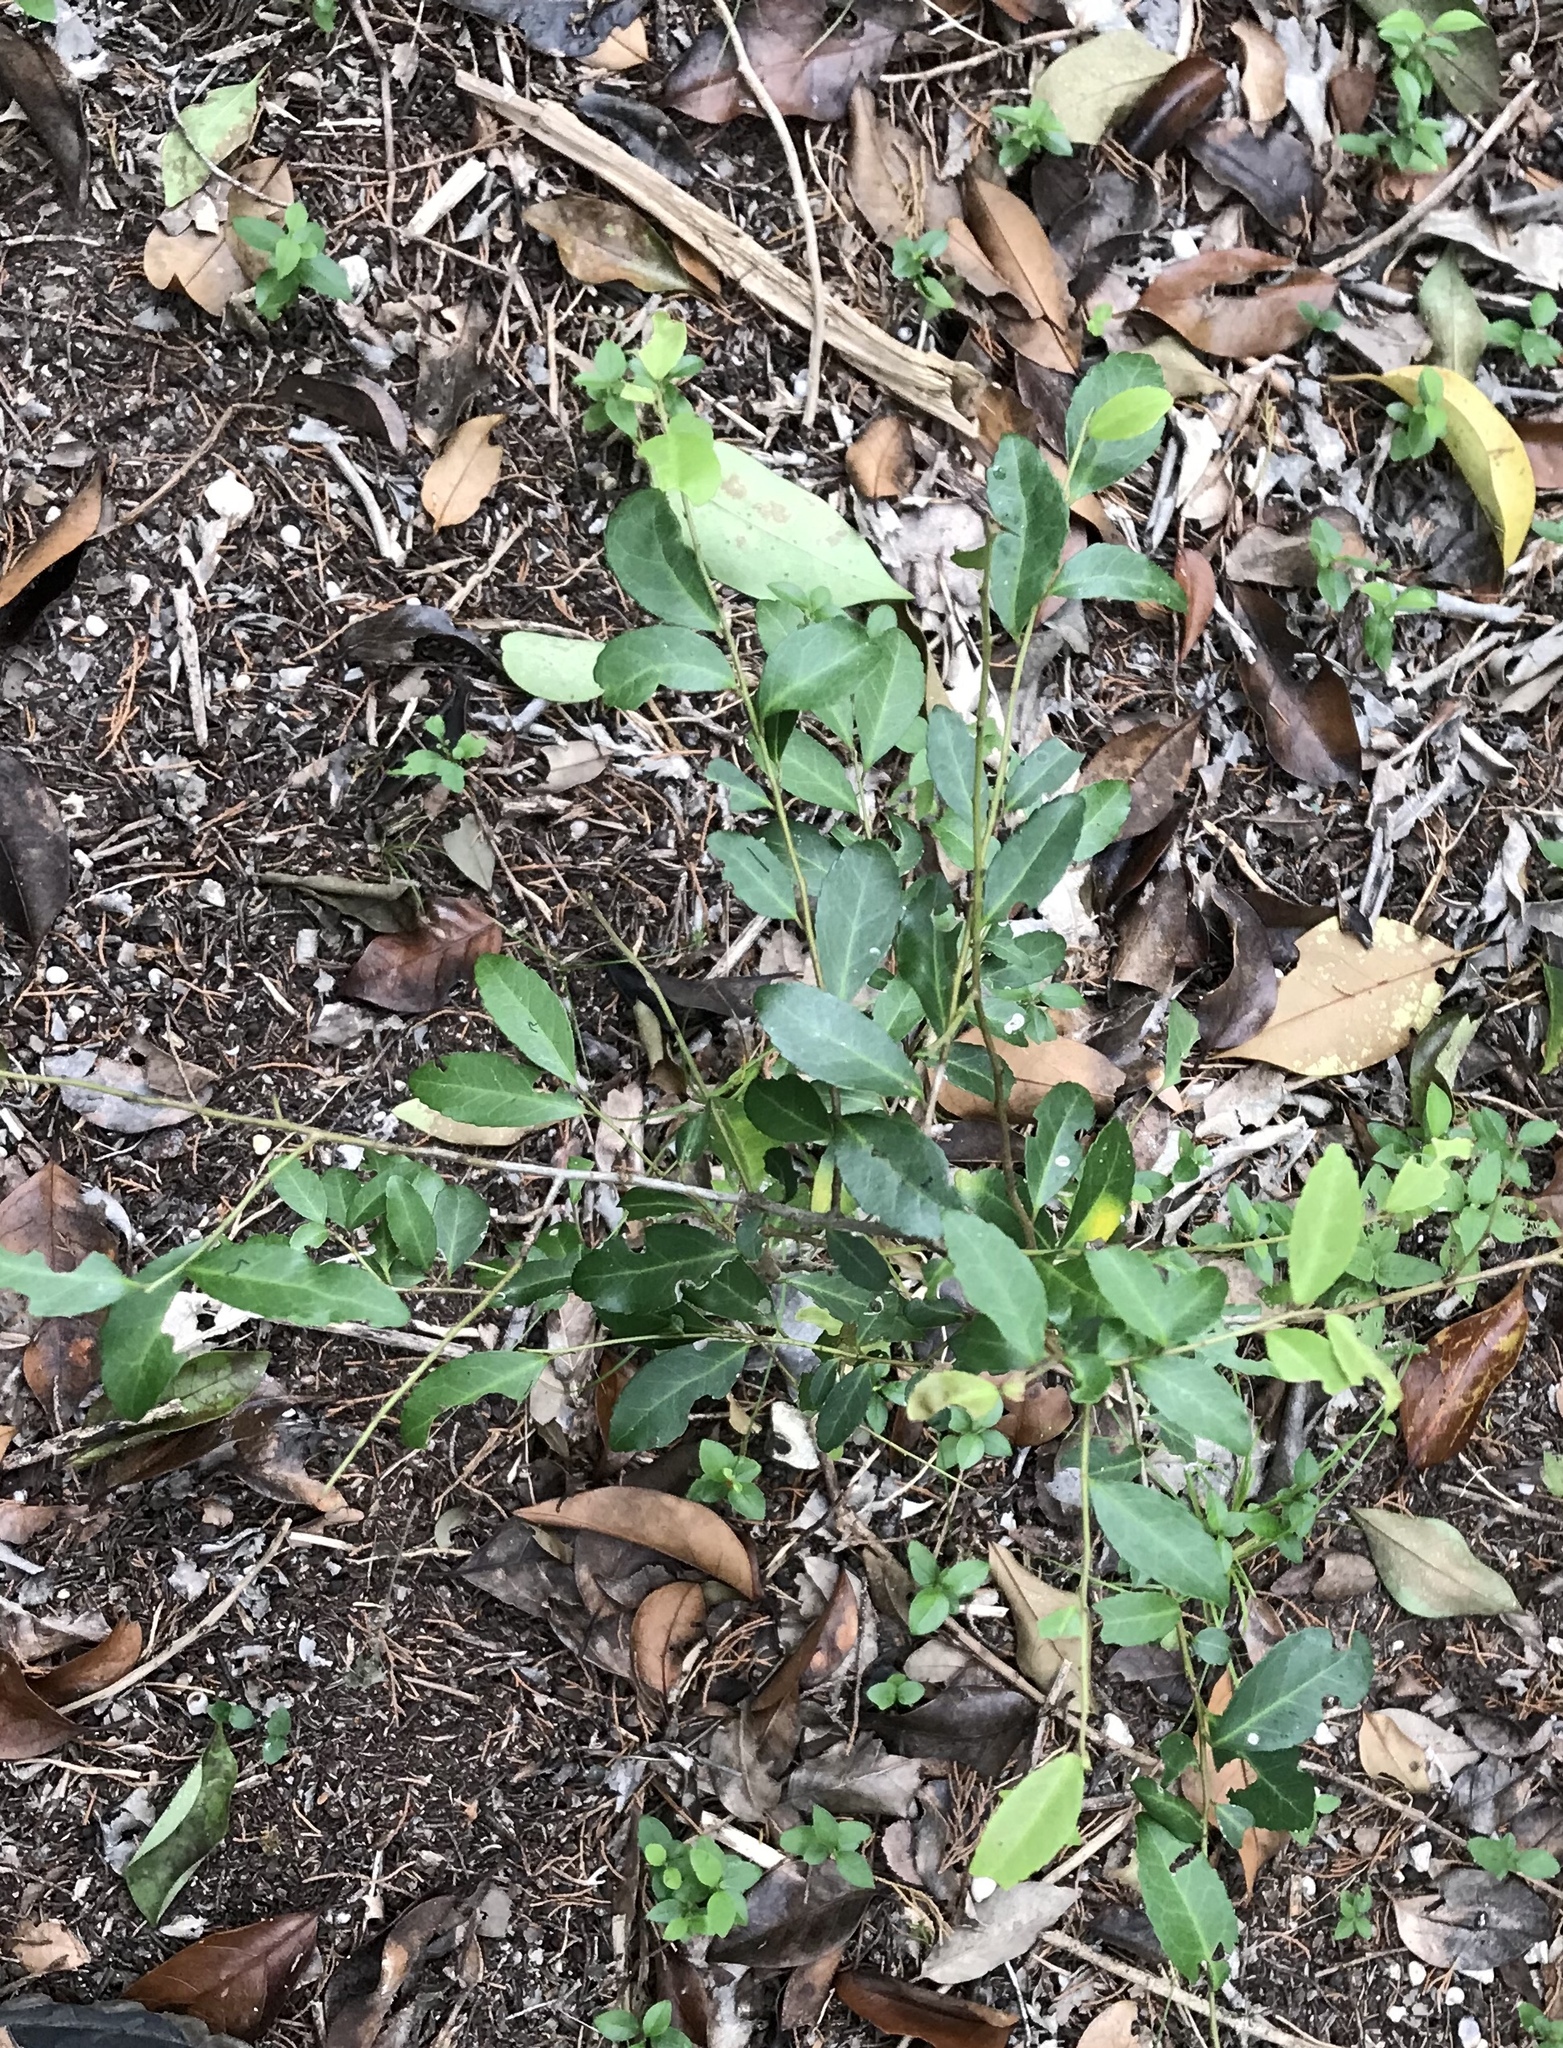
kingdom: Plantae
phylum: Tracheophyta
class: Magnoliopsida
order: Aquifoliales
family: Aquifoliaceae
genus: Ilex
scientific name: Ilex vomitoria
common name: Yaupon holly
